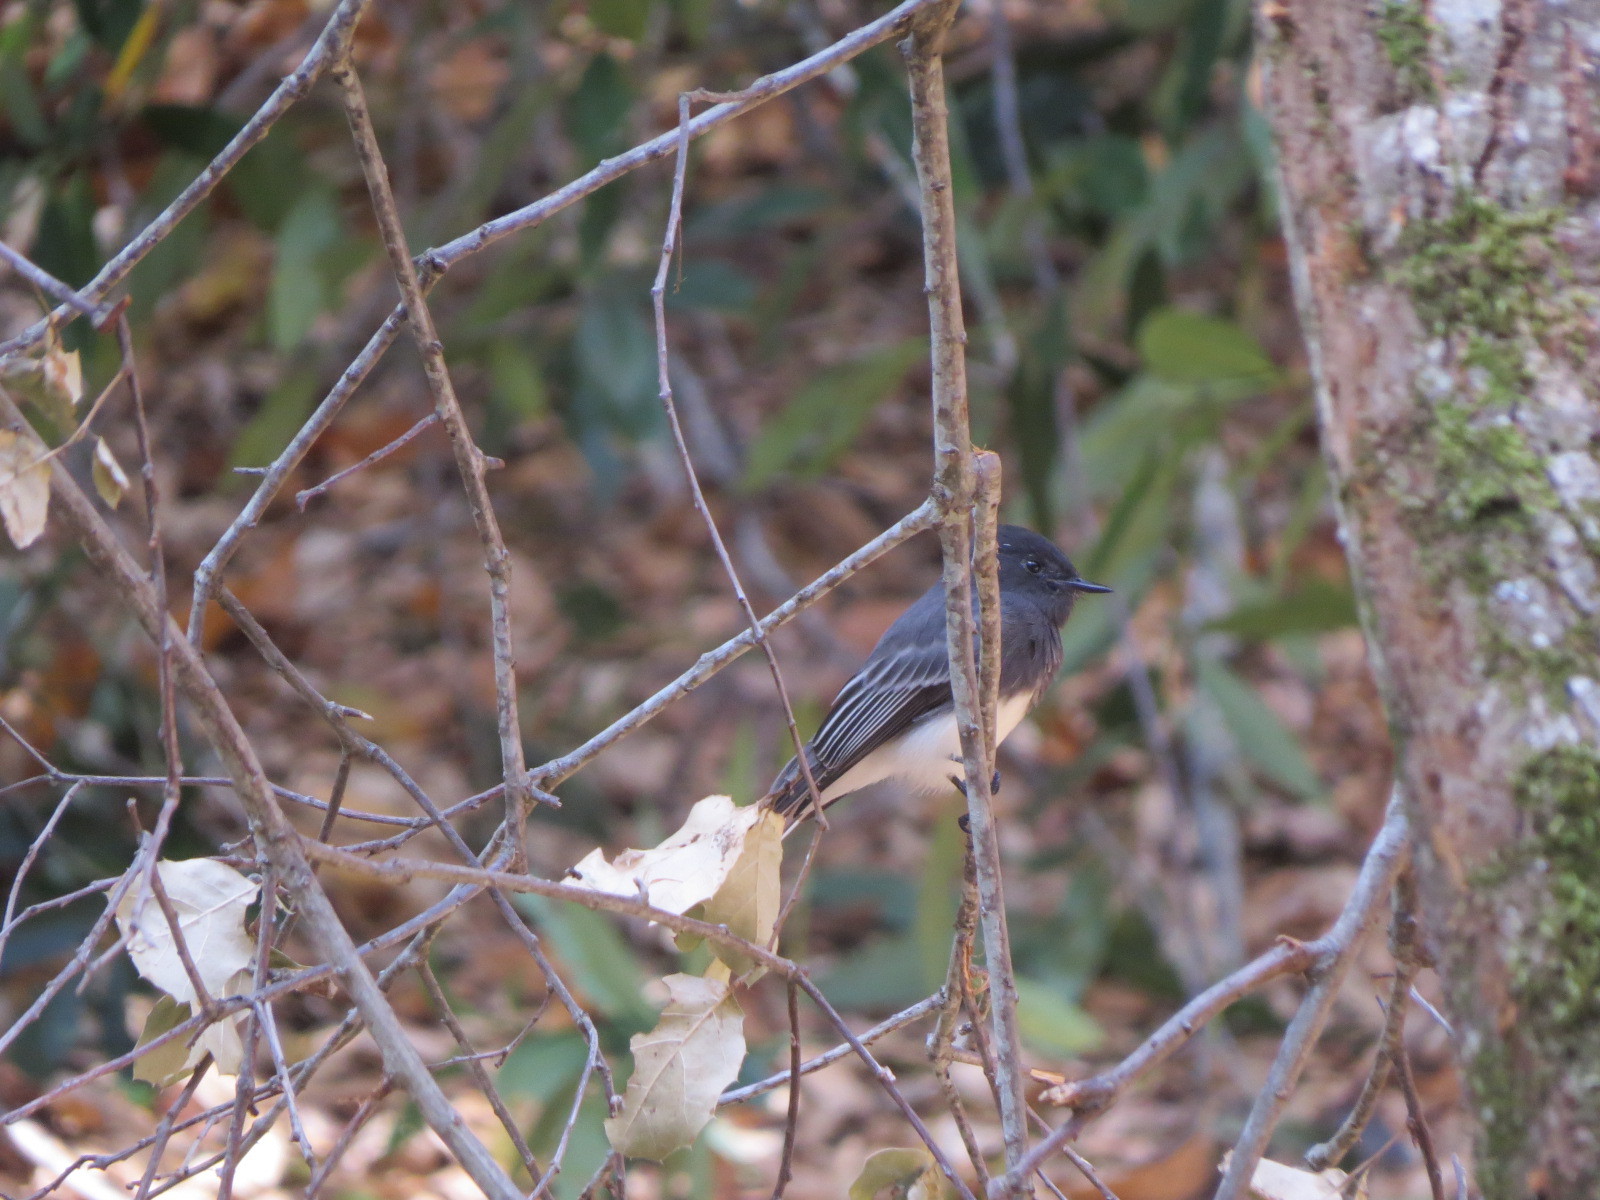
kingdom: Animalia
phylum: Chordata
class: Aves
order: Passeriformes
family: Tyrannidae
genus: Sayornis
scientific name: Sayornis nigricans
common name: Black phoebe
